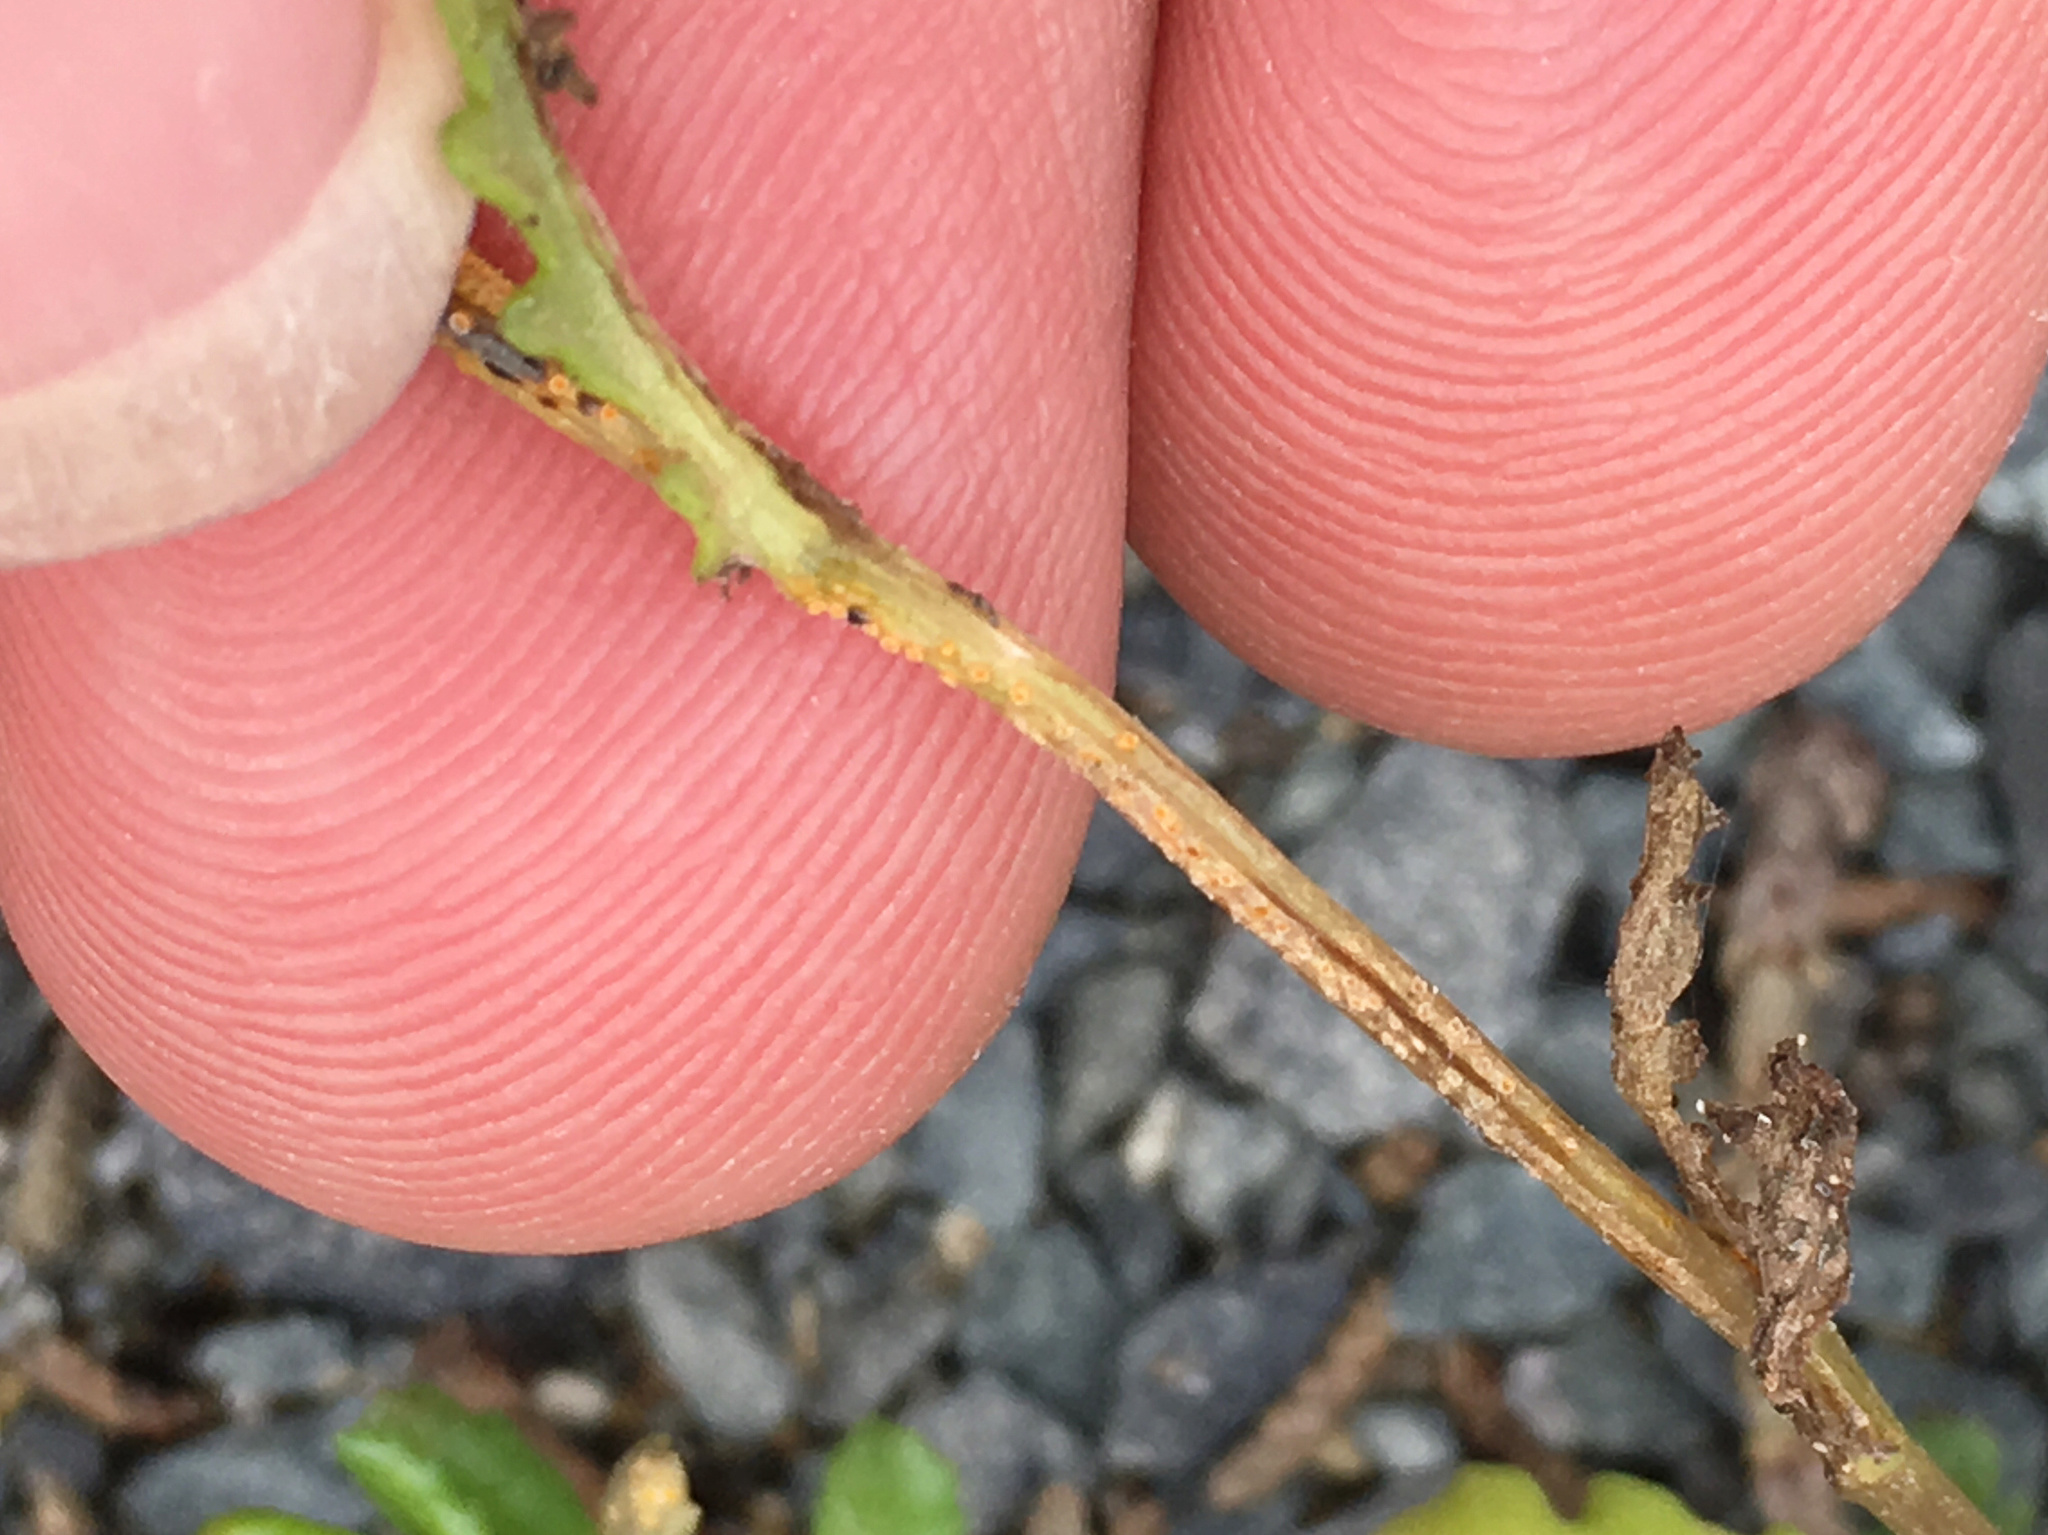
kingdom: Fungi
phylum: Basidiomycota
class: Pucciniomycetes
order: Pucciniales
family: Pucciniaceae
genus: Puccinia
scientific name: Puccinia lagenophorae
